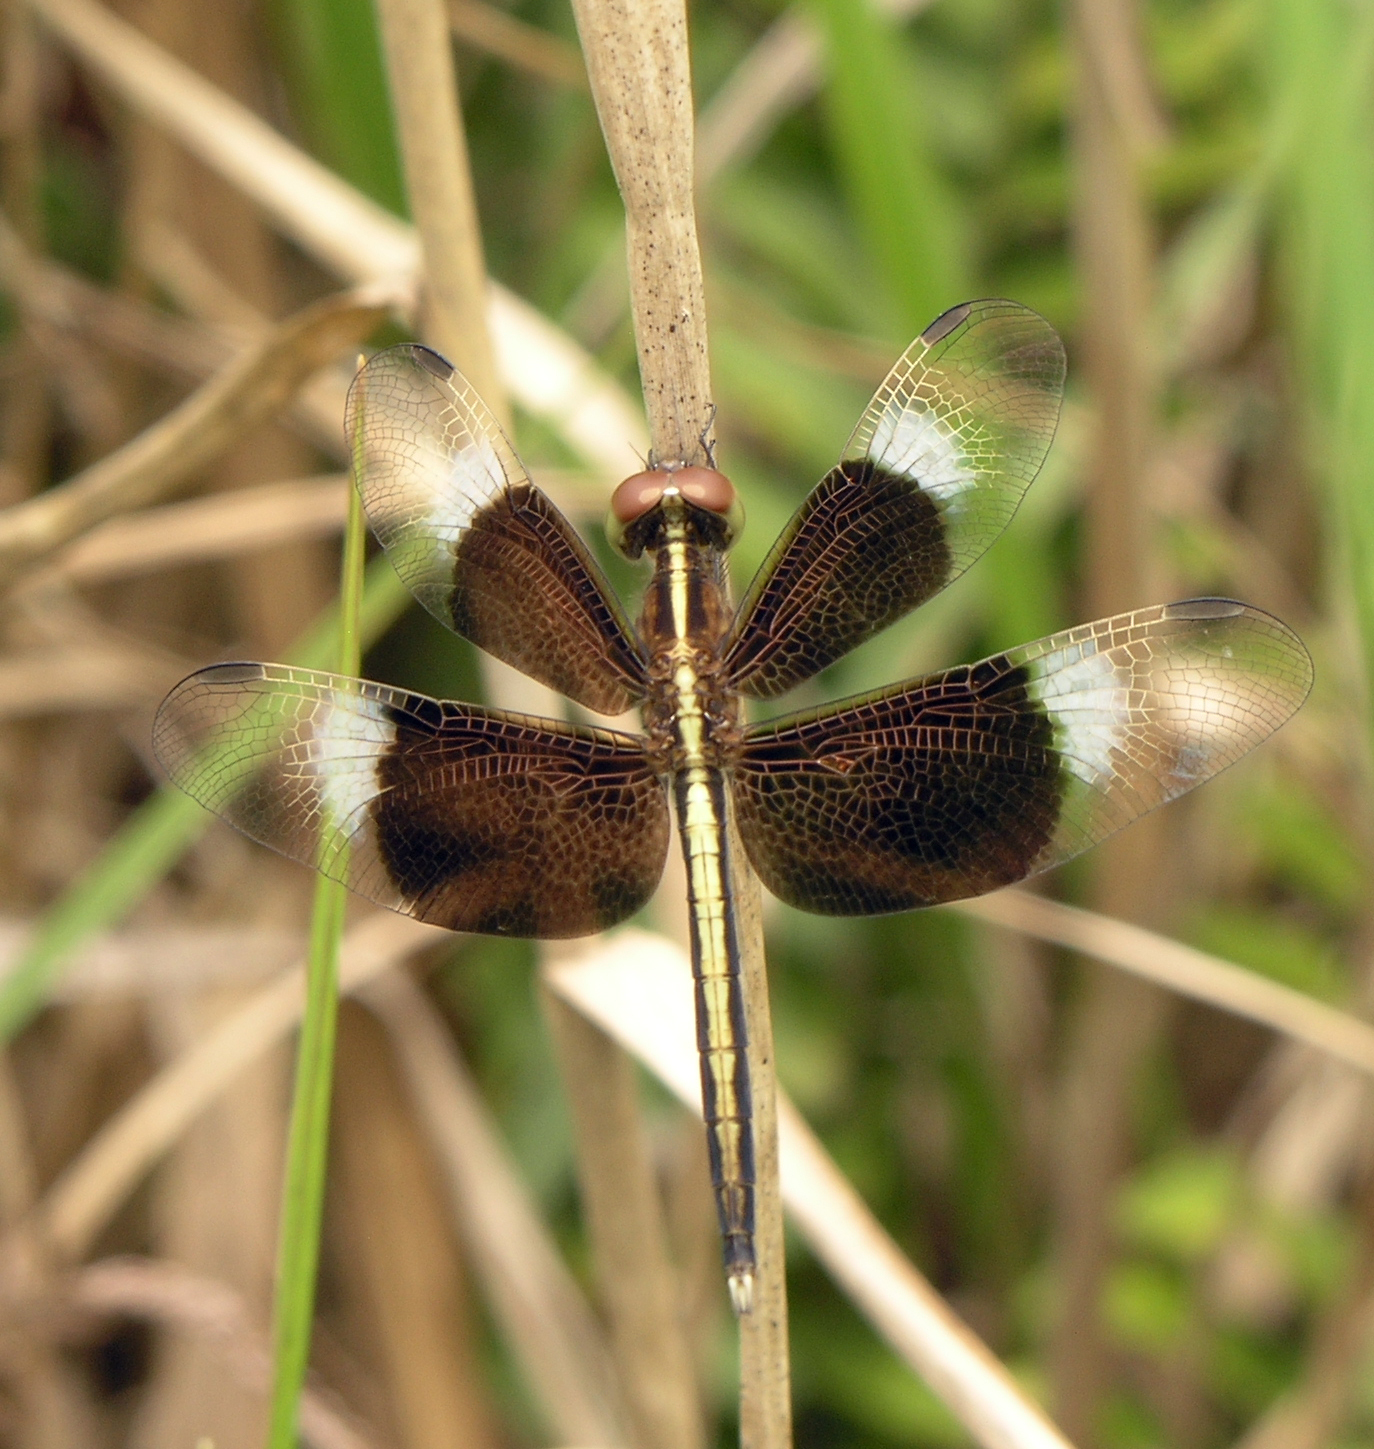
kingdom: Animalia
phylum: Arthropoda
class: Insecta
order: Odonata
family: Libellulidae
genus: Neurothemis
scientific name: Neurothemis tullia
